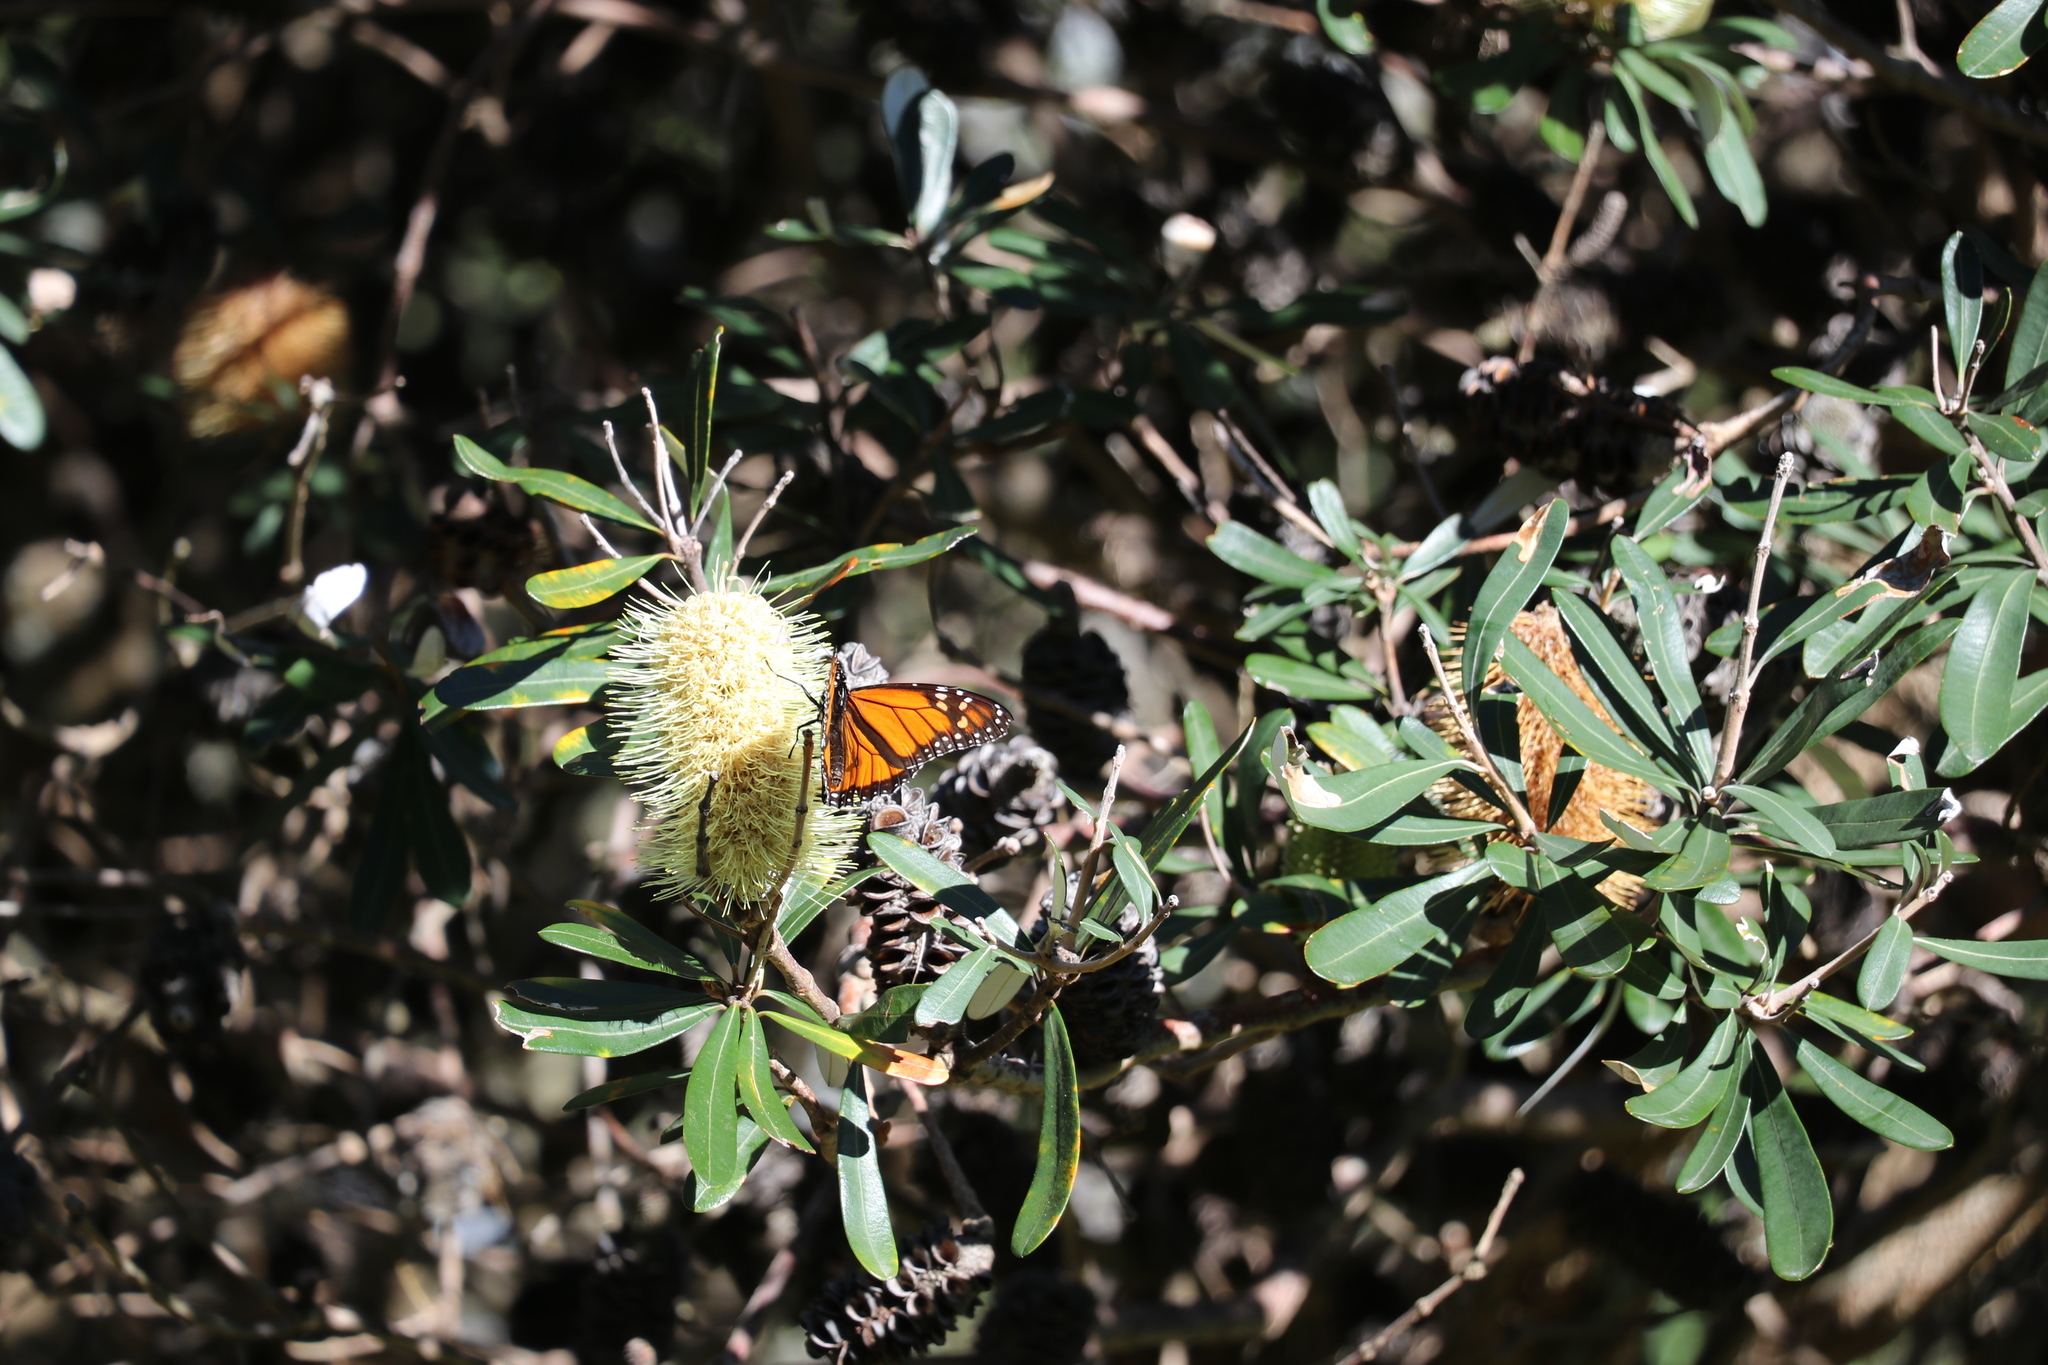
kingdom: Animalia
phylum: Arthropoda
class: Insecta
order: Lepidoptera
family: Nymphalidae
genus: Danaus
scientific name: Danaus plexippus
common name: Monarch
